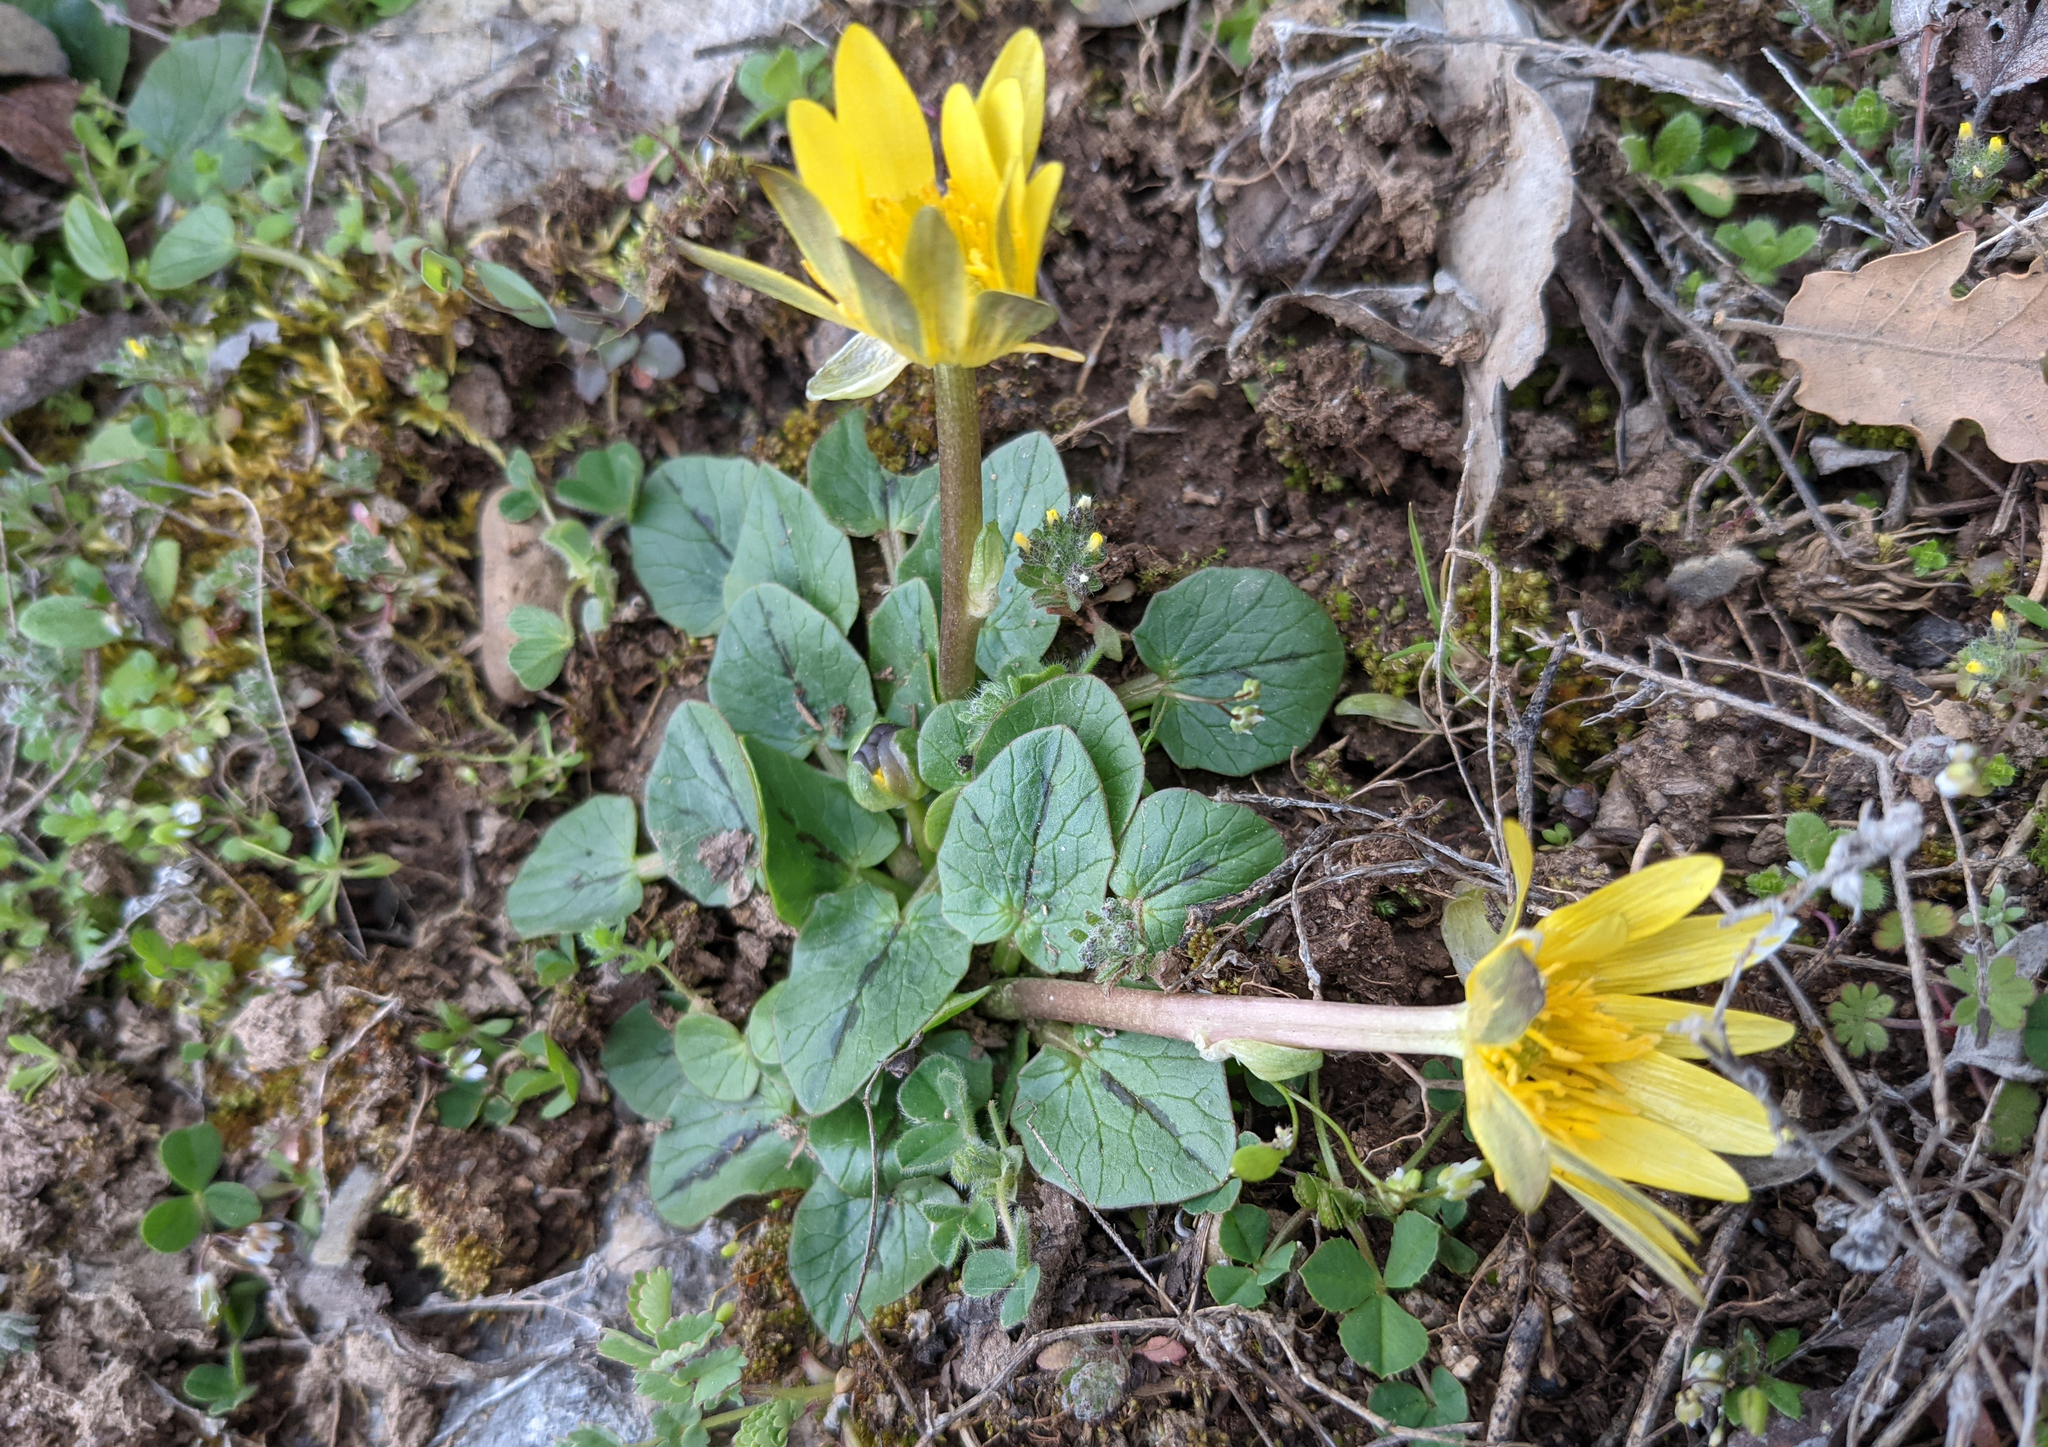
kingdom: Plantae
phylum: Tracheophyta
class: Magnoliopsida
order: Ranunculales
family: Ranunculaceae
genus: Ficaria
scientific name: Ficaria verna
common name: Lesser celandine
